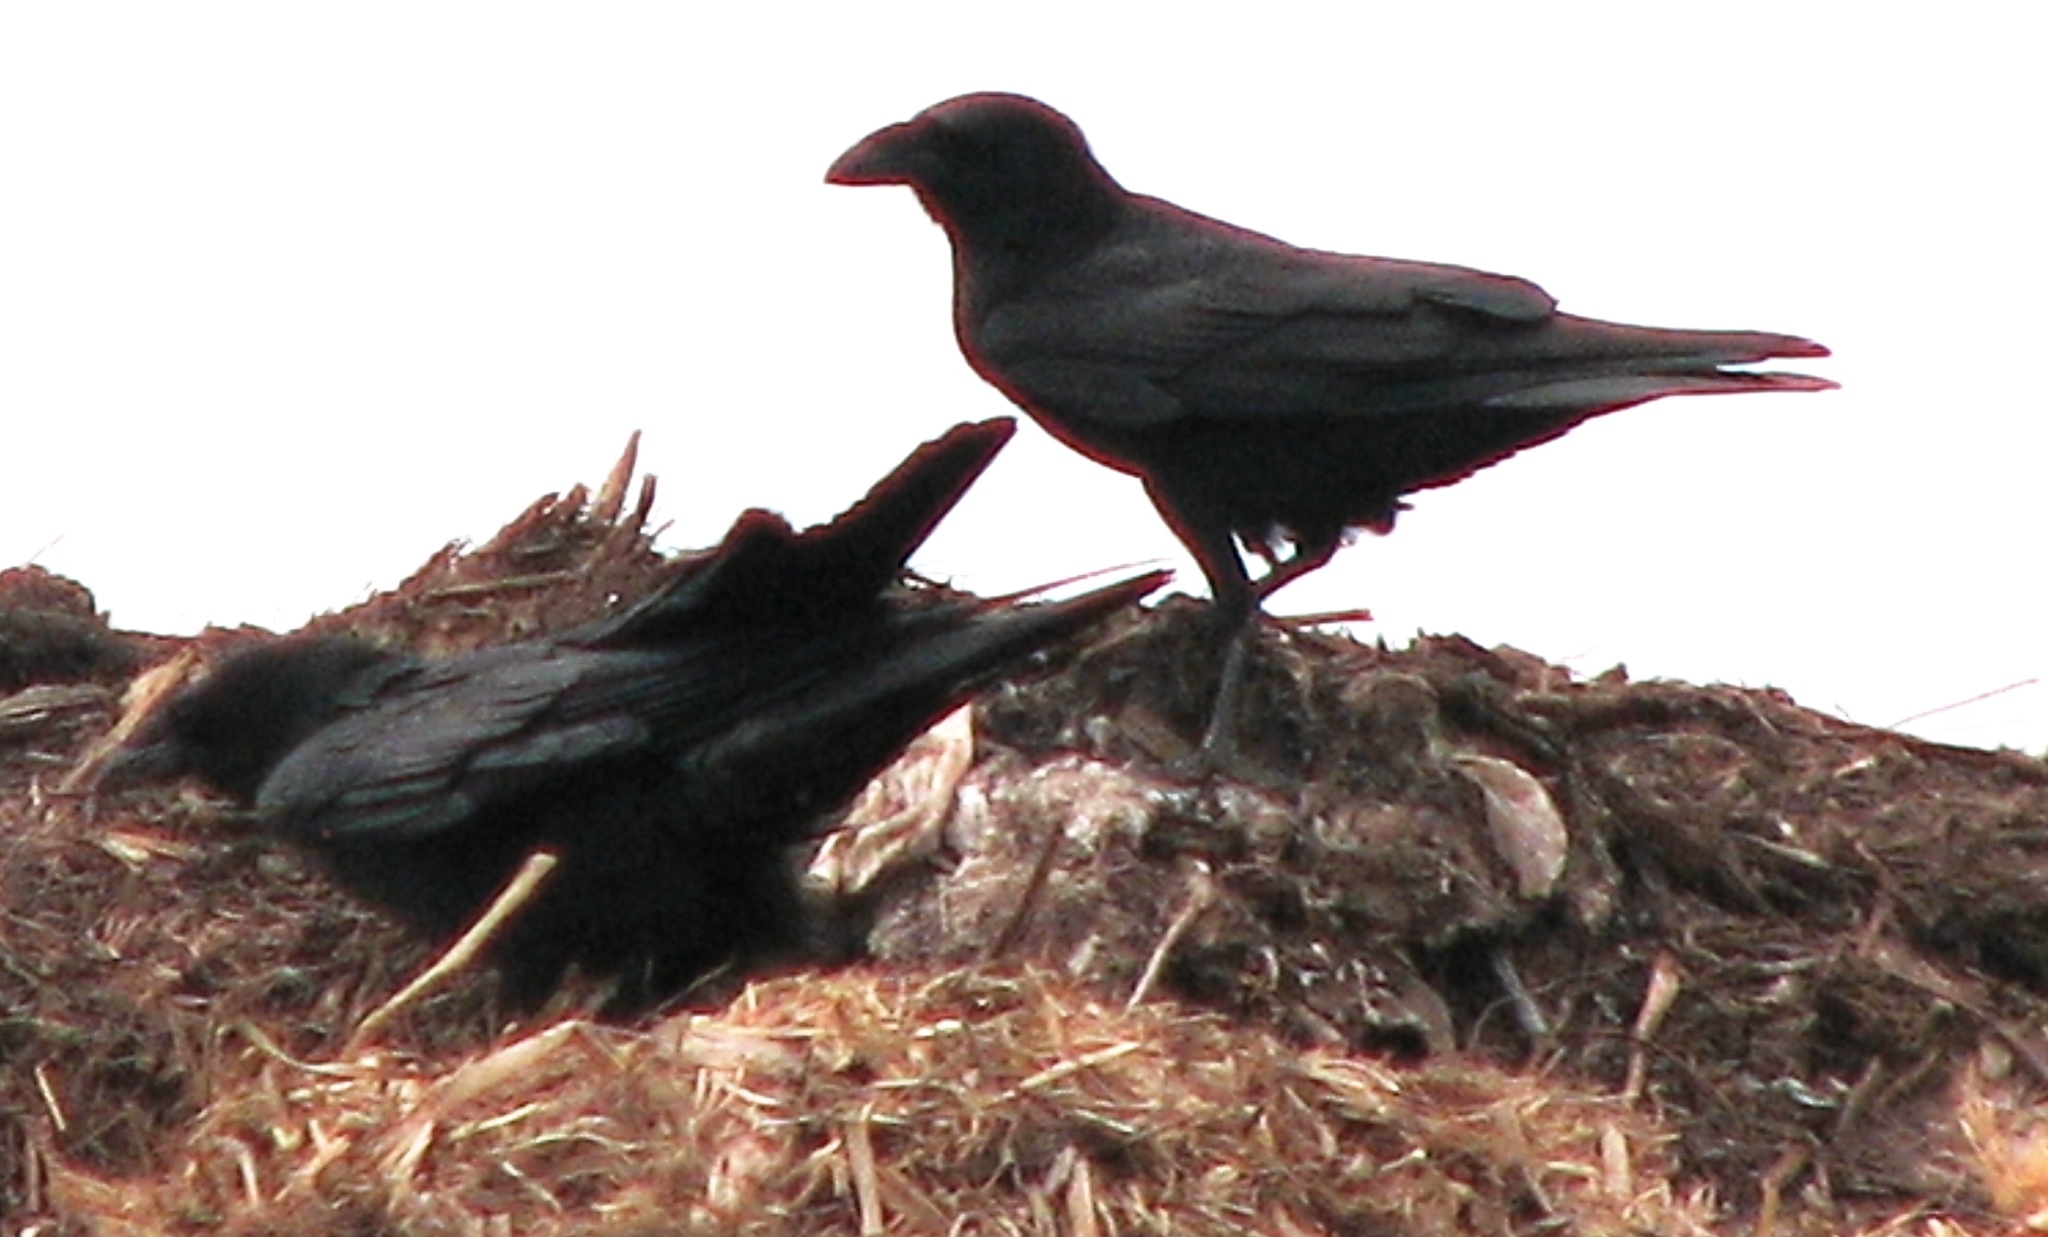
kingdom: Animalia
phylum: Chordata
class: Aves
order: Passeriformes
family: Corvidae
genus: Corvus
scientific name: Corvus cryptoleucus
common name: Chihuahuan raven
